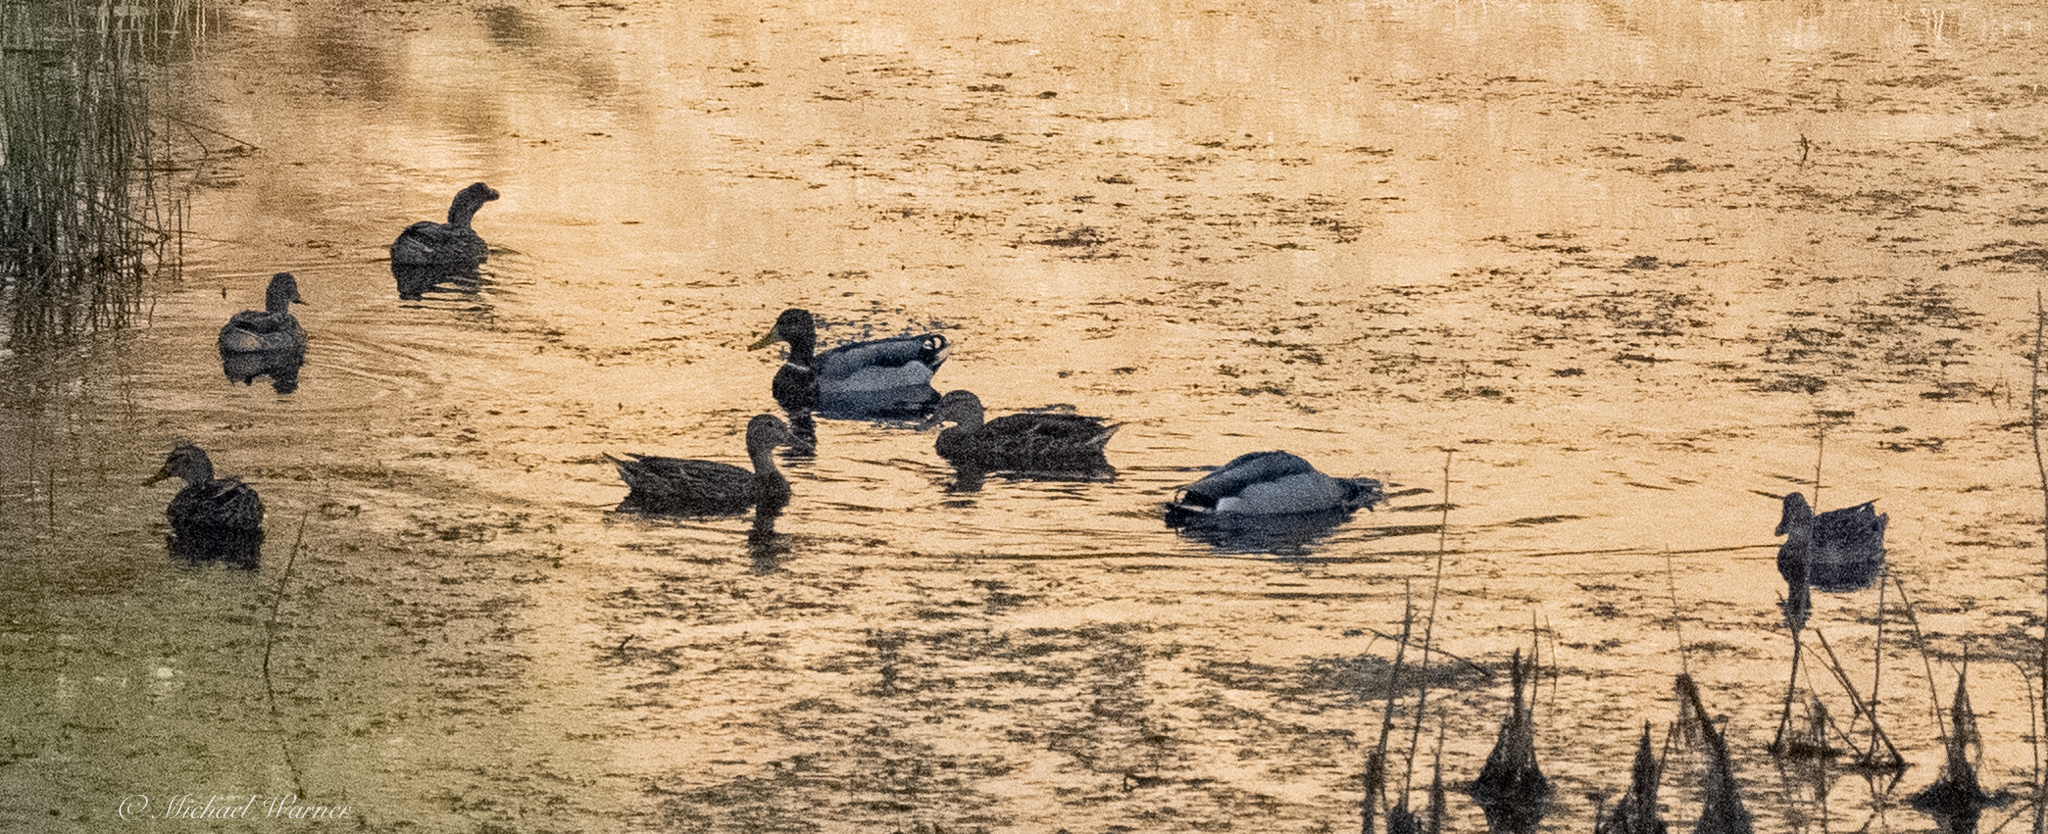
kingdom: Animalia
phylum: Chordata
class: Aves
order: Anseriformes
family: Anatidae
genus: Anas
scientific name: Anas platyrhynchos
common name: Mallard
